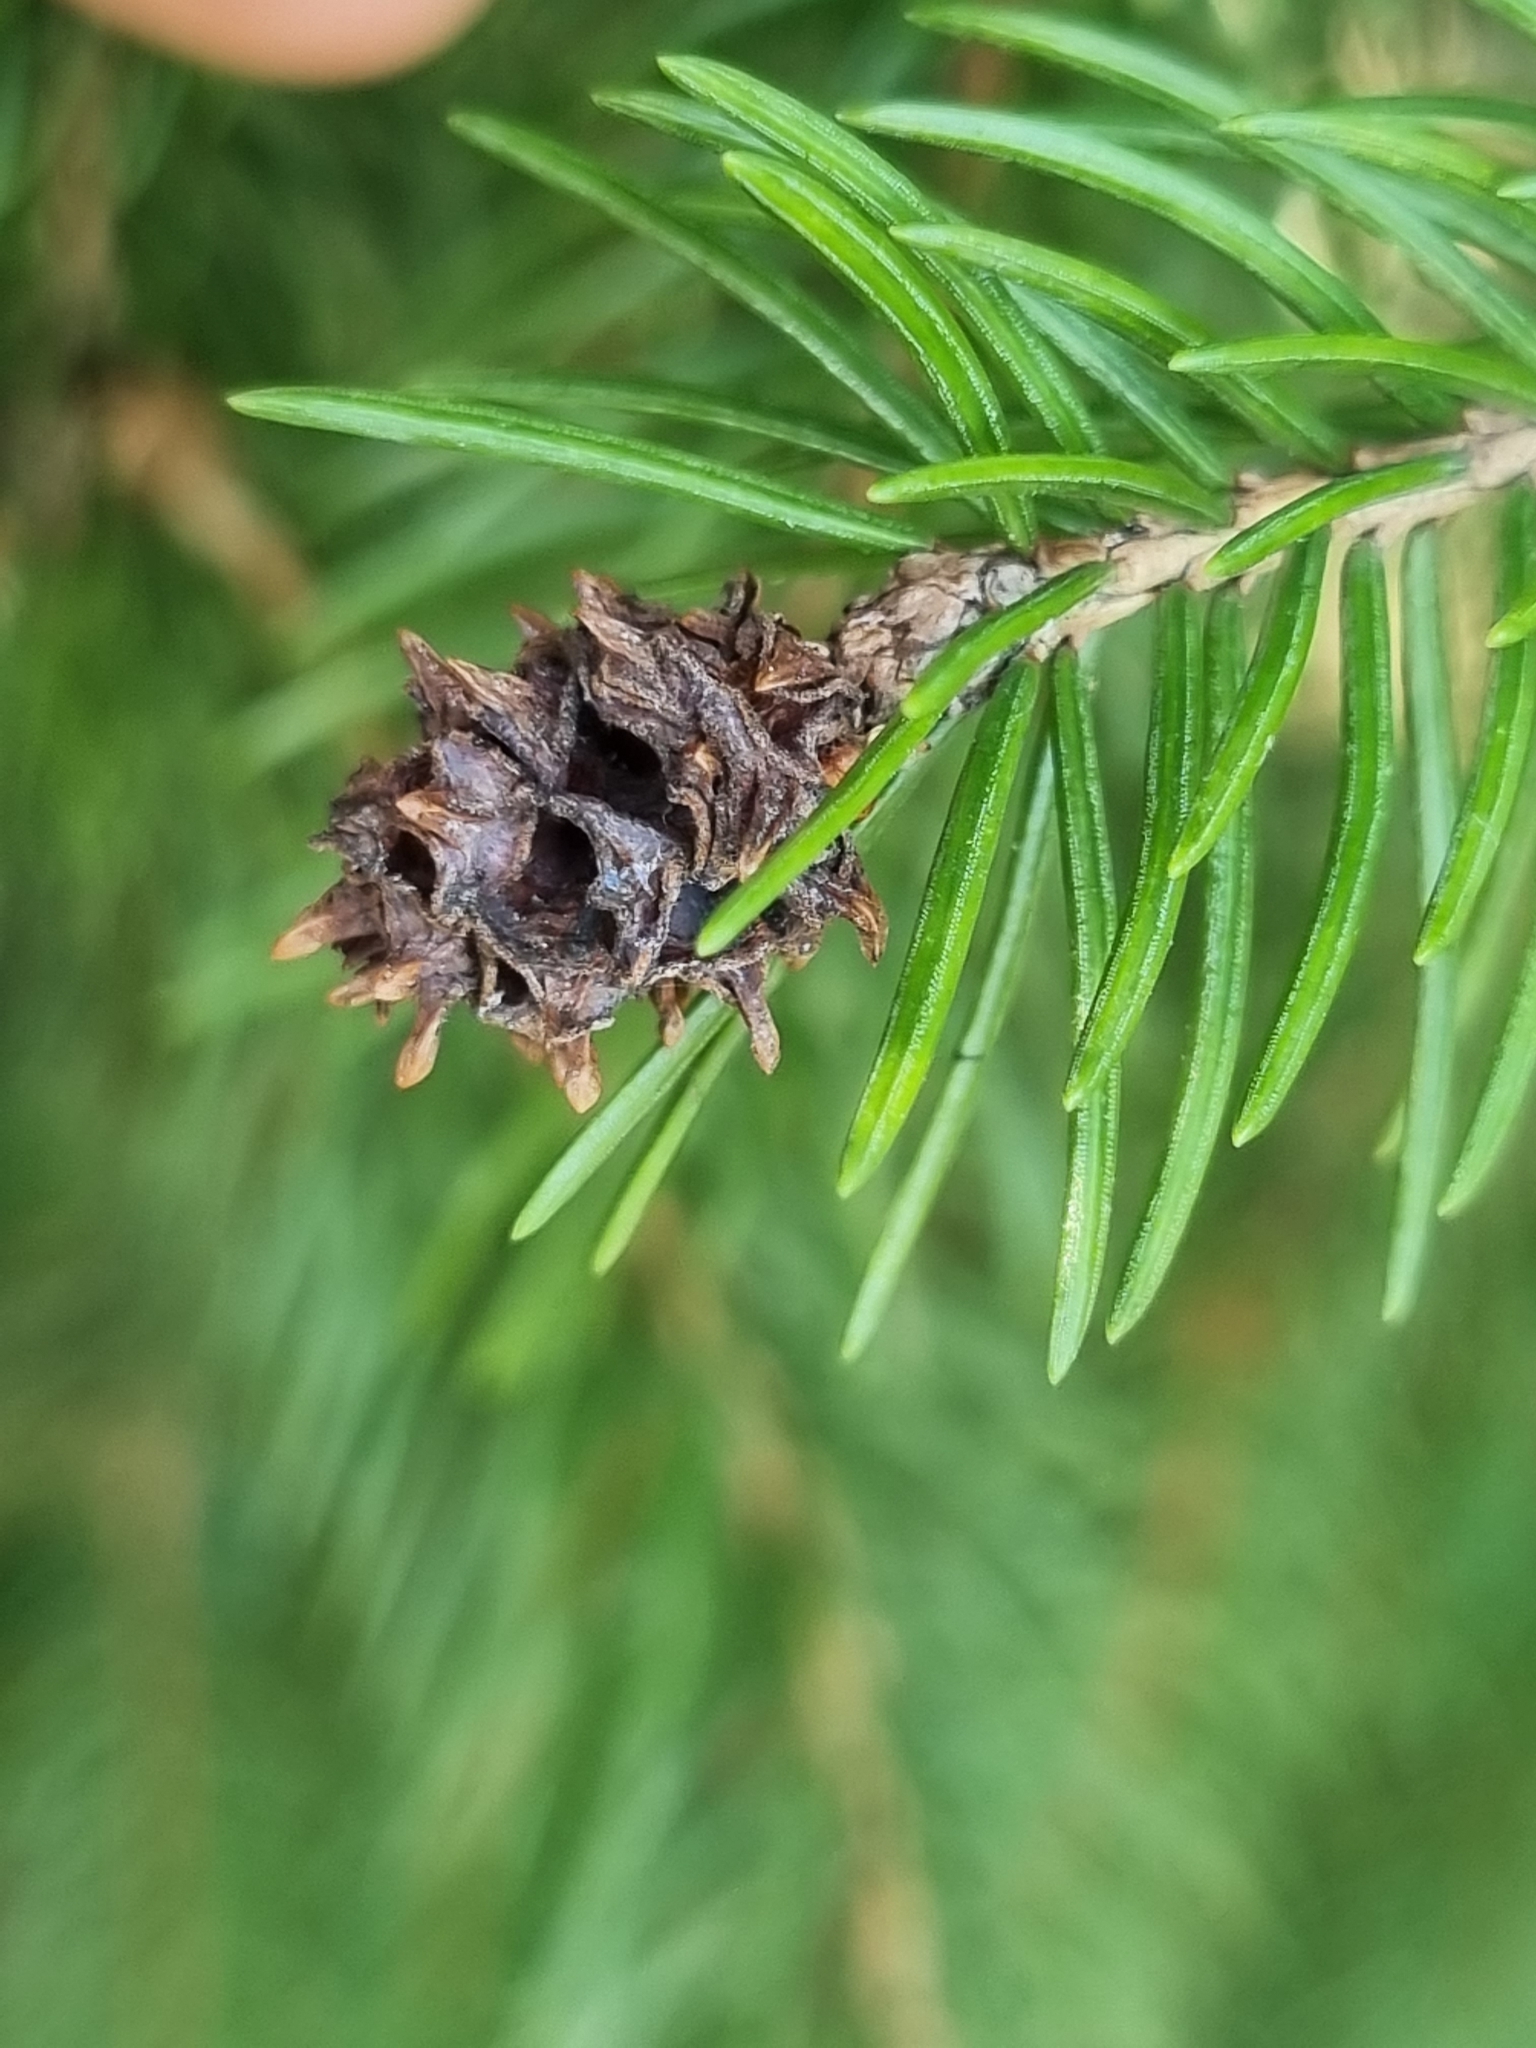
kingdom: Animalia
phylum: Arthropoda
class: Insecta
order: Hemiptera
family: Adelgidae
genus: Adelges
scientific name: Adelges abietis
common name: Eastern spruce gall adelgid
